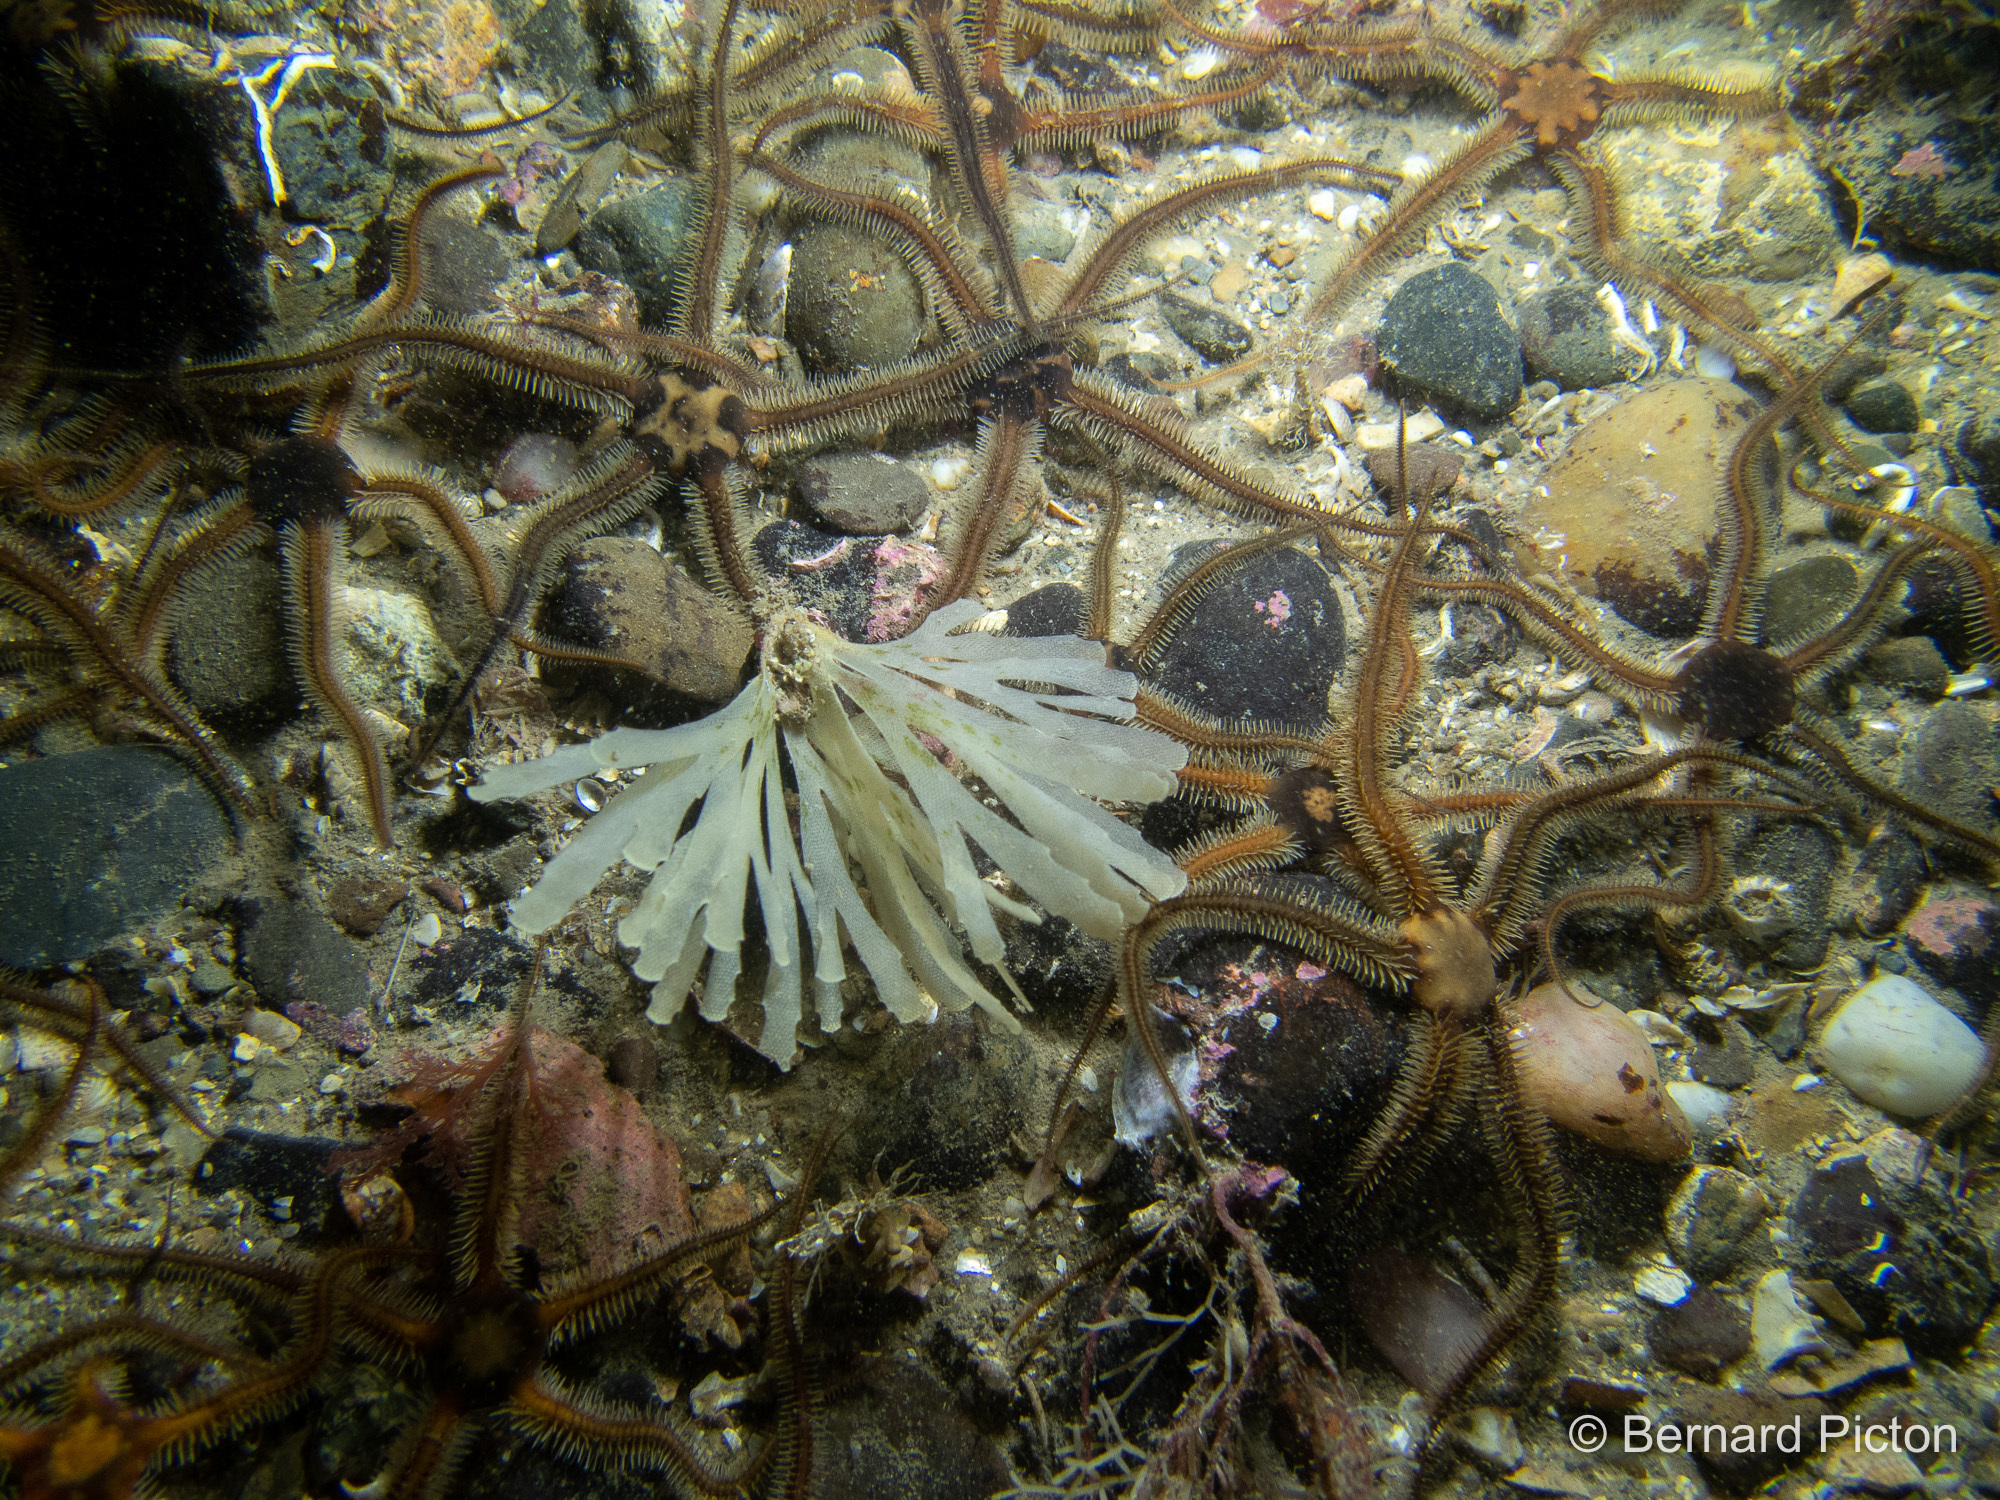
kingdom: Animalia
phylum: Bryozoa
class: Gymnolaemata
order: Cheilostomatida
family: Flustridae
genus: Securiflustra
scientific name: Securiflustra securifrons
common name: Narrow-leaved hornwrack
